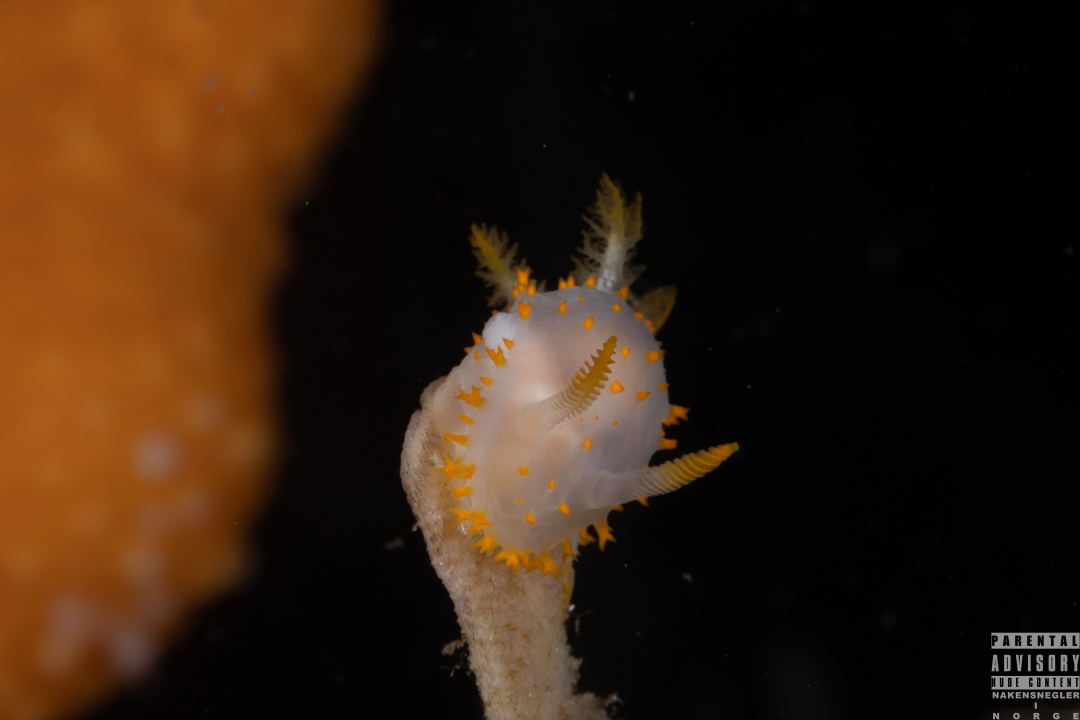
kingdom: Animalia
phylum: Mollusca
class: Gastropoda
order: Nudibranchia
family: Polyceridae
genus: Crimora
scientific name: Crimora papillata
